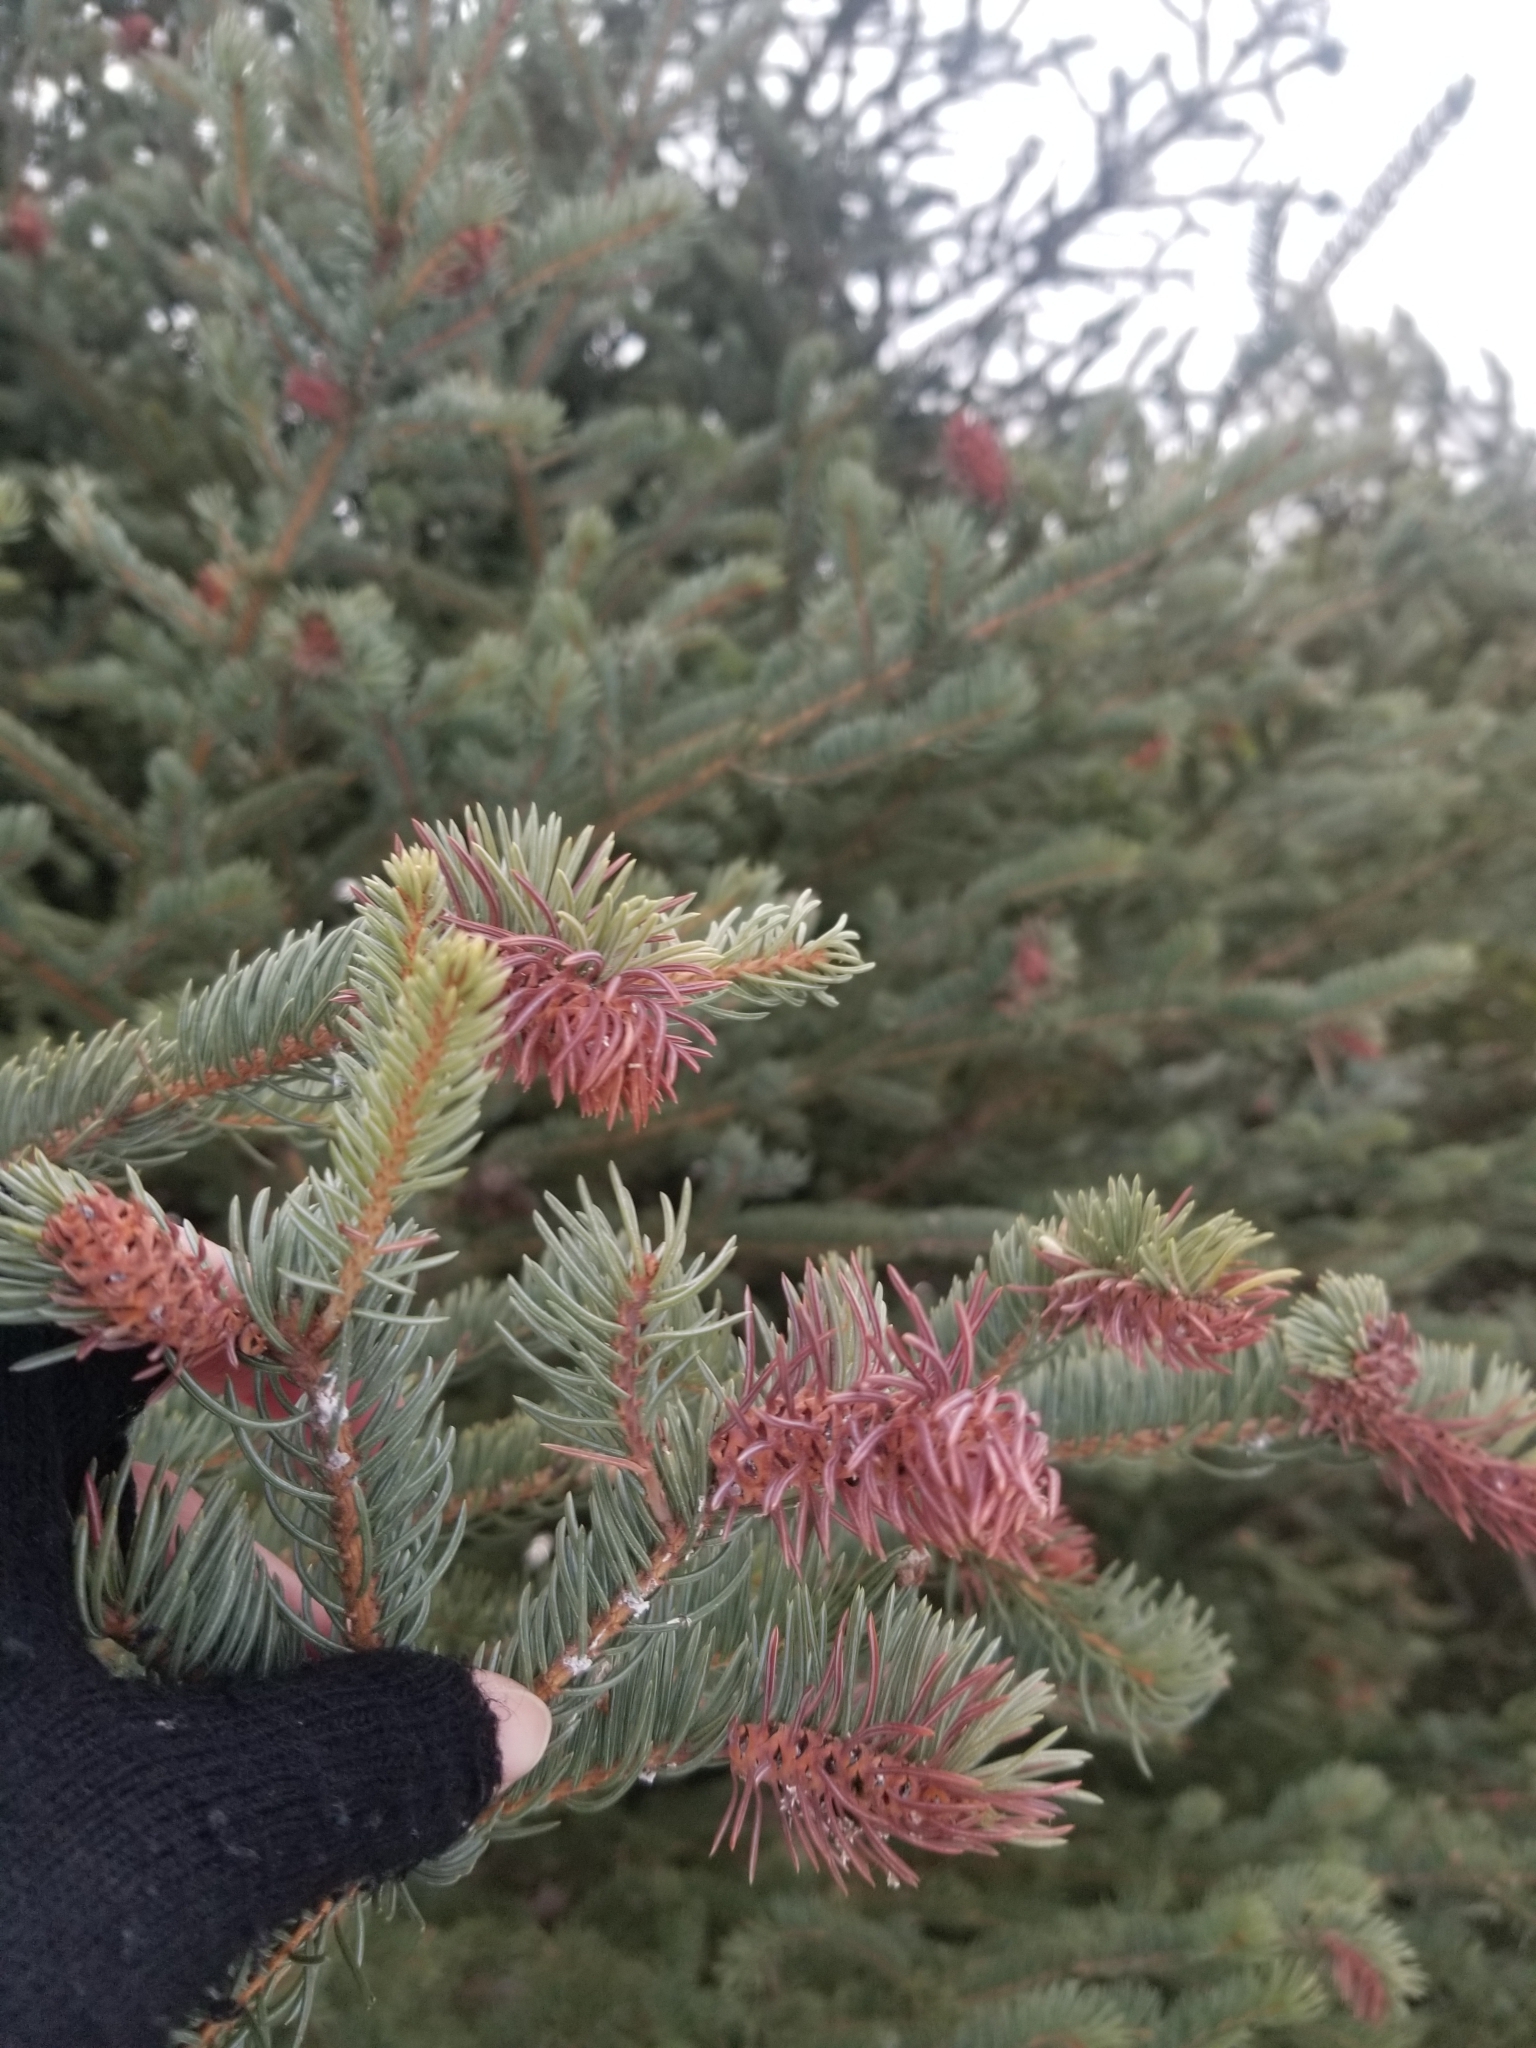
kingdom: Animalia
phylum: Arthropoda
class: Insecta
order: Hemiptera
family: Adelgidae
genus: Adelges
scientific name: Adelges cooleyi
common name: Cooley spruce gall adelgid
